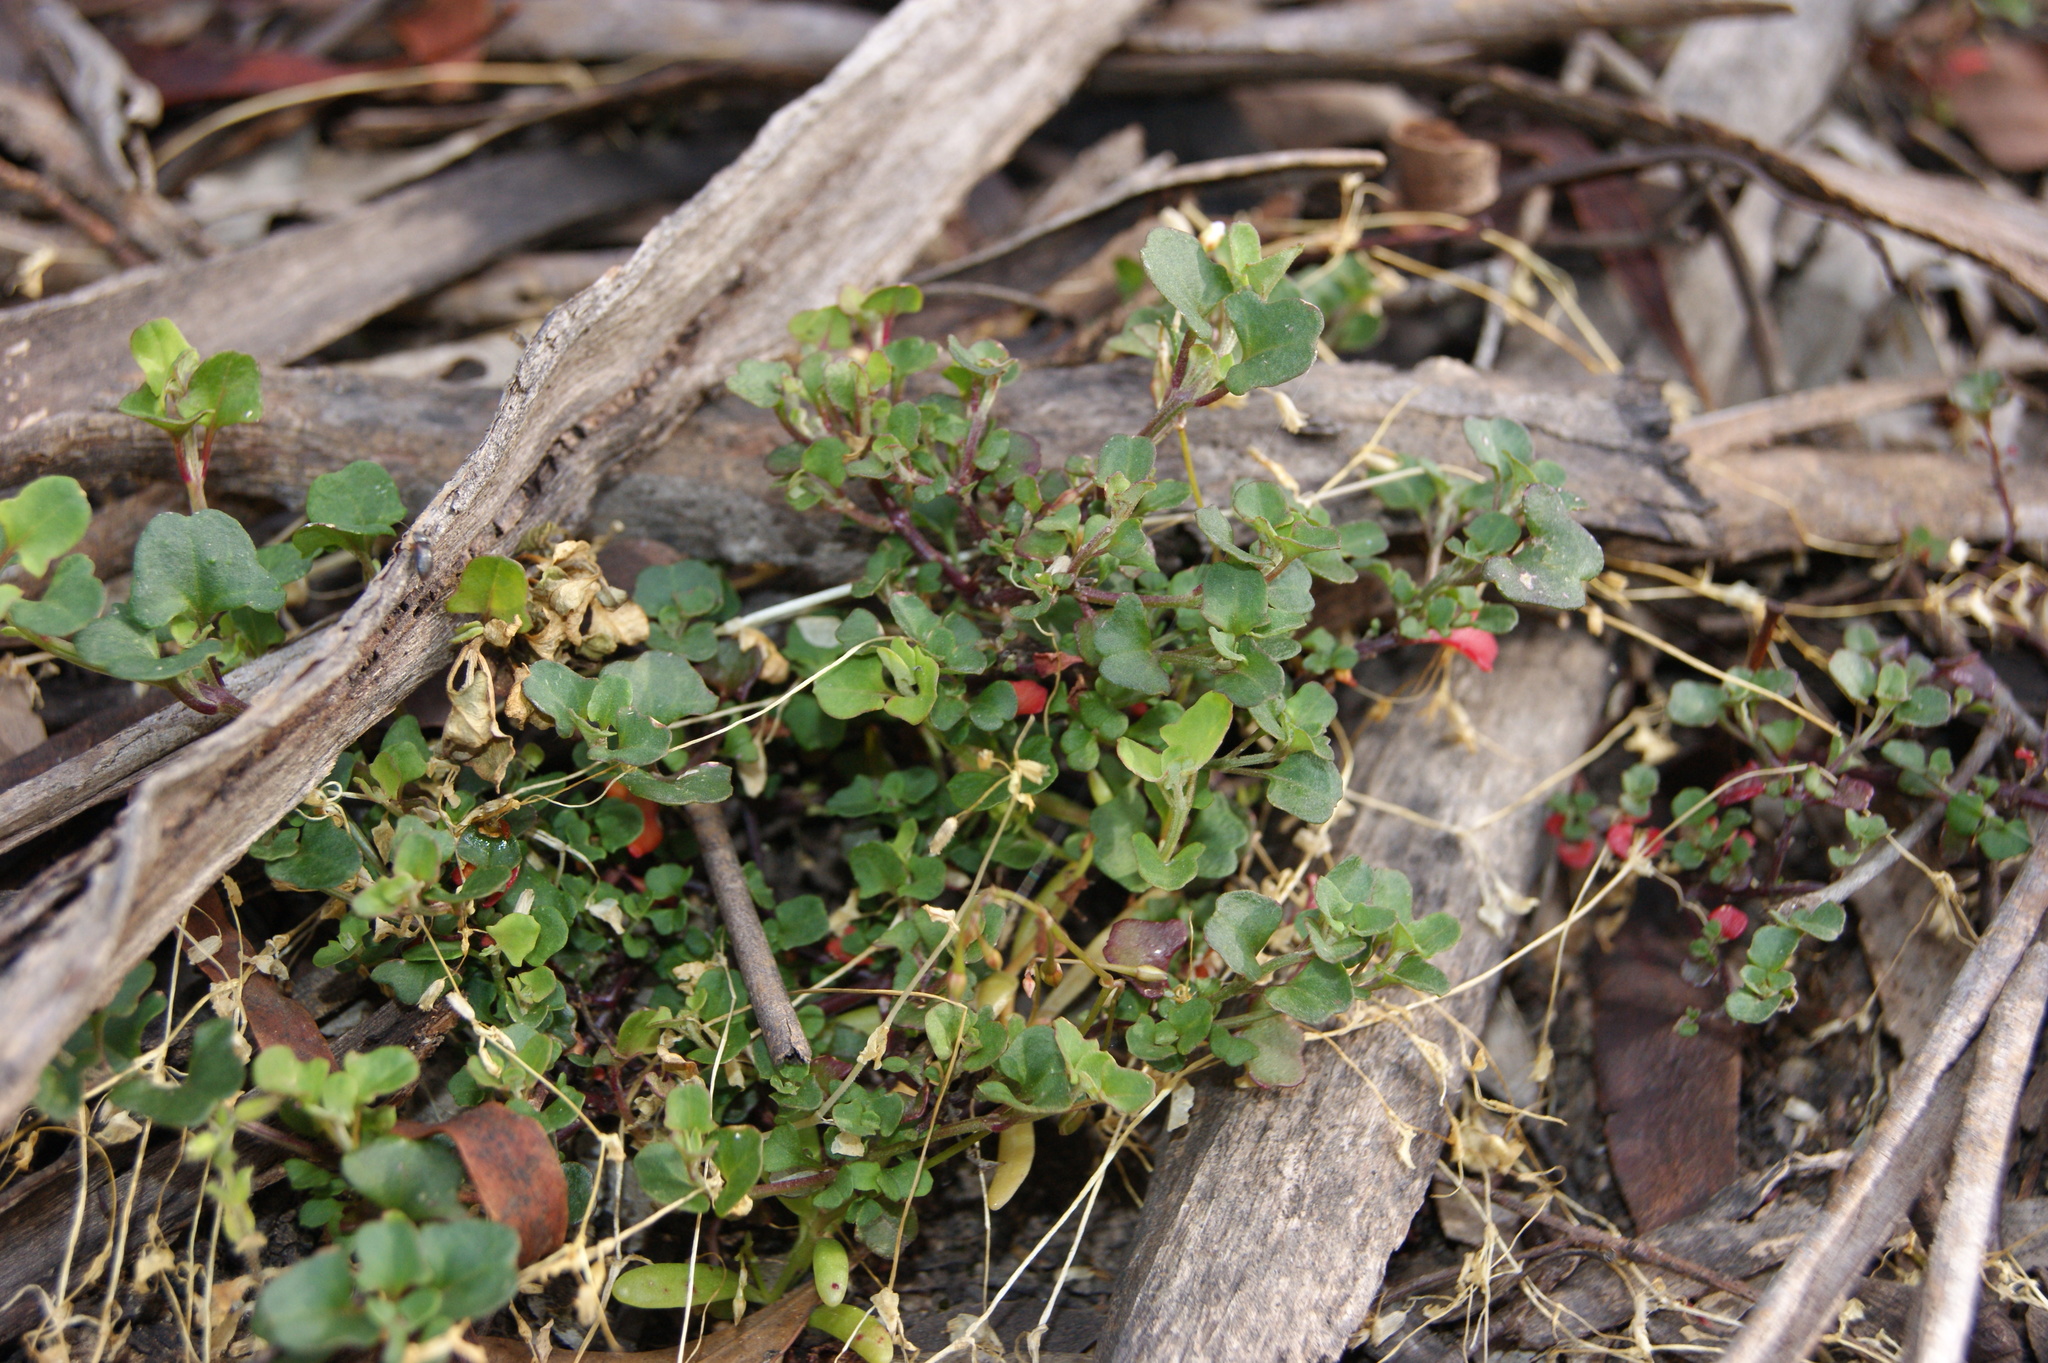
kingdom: Plantae
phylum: Tracheophyta
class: Magnoliopsida
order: Caryophyllales
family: Amaranthaceae
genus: Chenopodium
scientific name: Chenopodium robertianum
